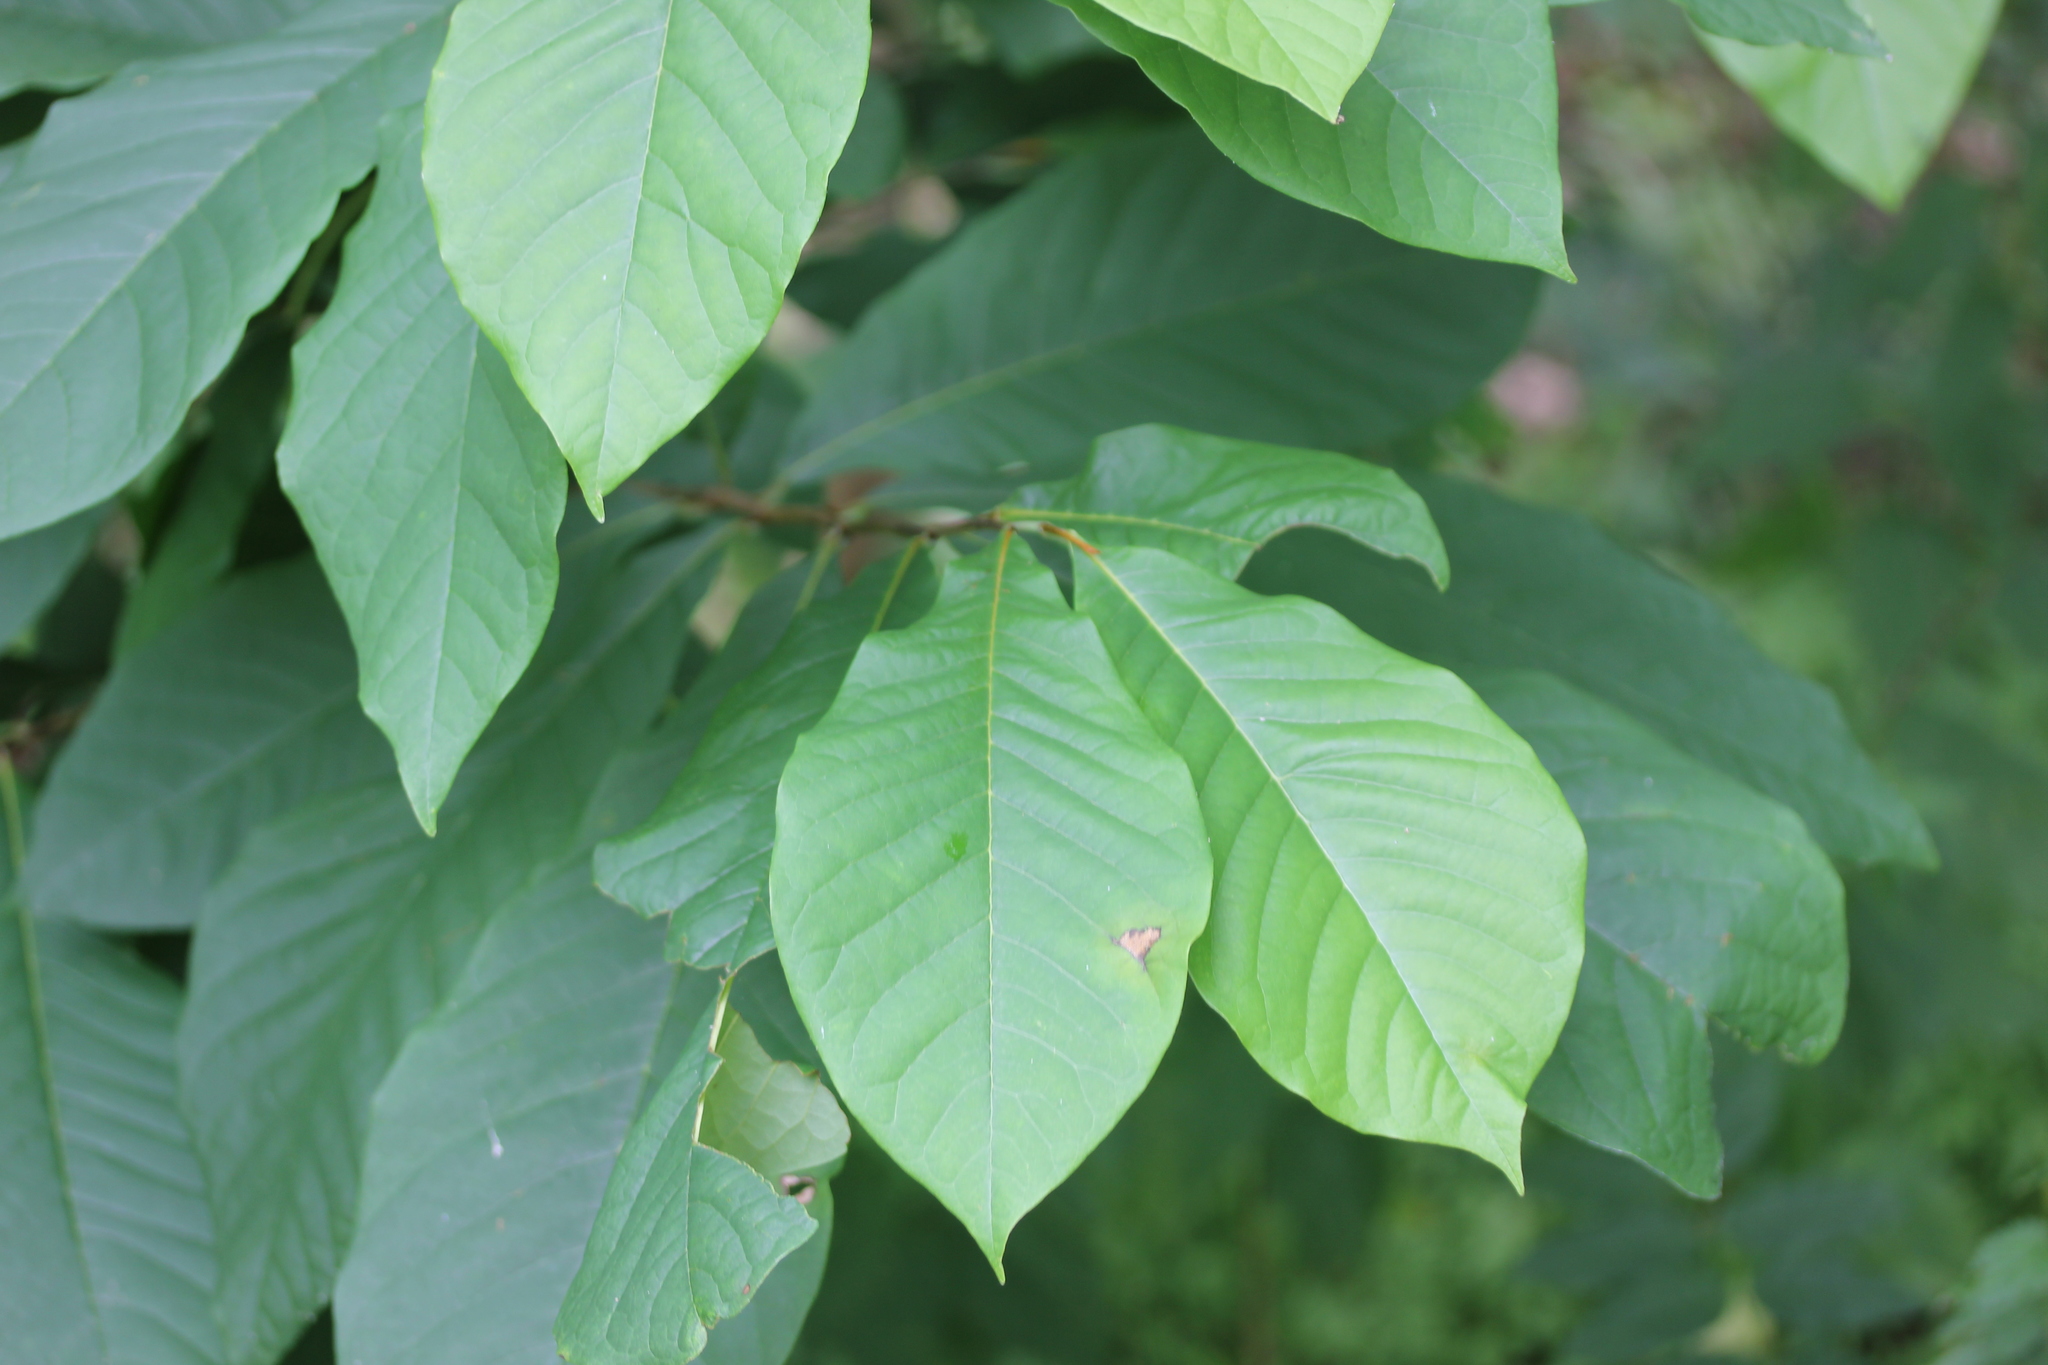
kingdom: Plantae
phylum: Tracheophyta
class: Magnoliopsida
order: Magnoliales
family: Annonaceae
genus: Asimina
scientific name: Asimina triloba
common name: Dog-banana
